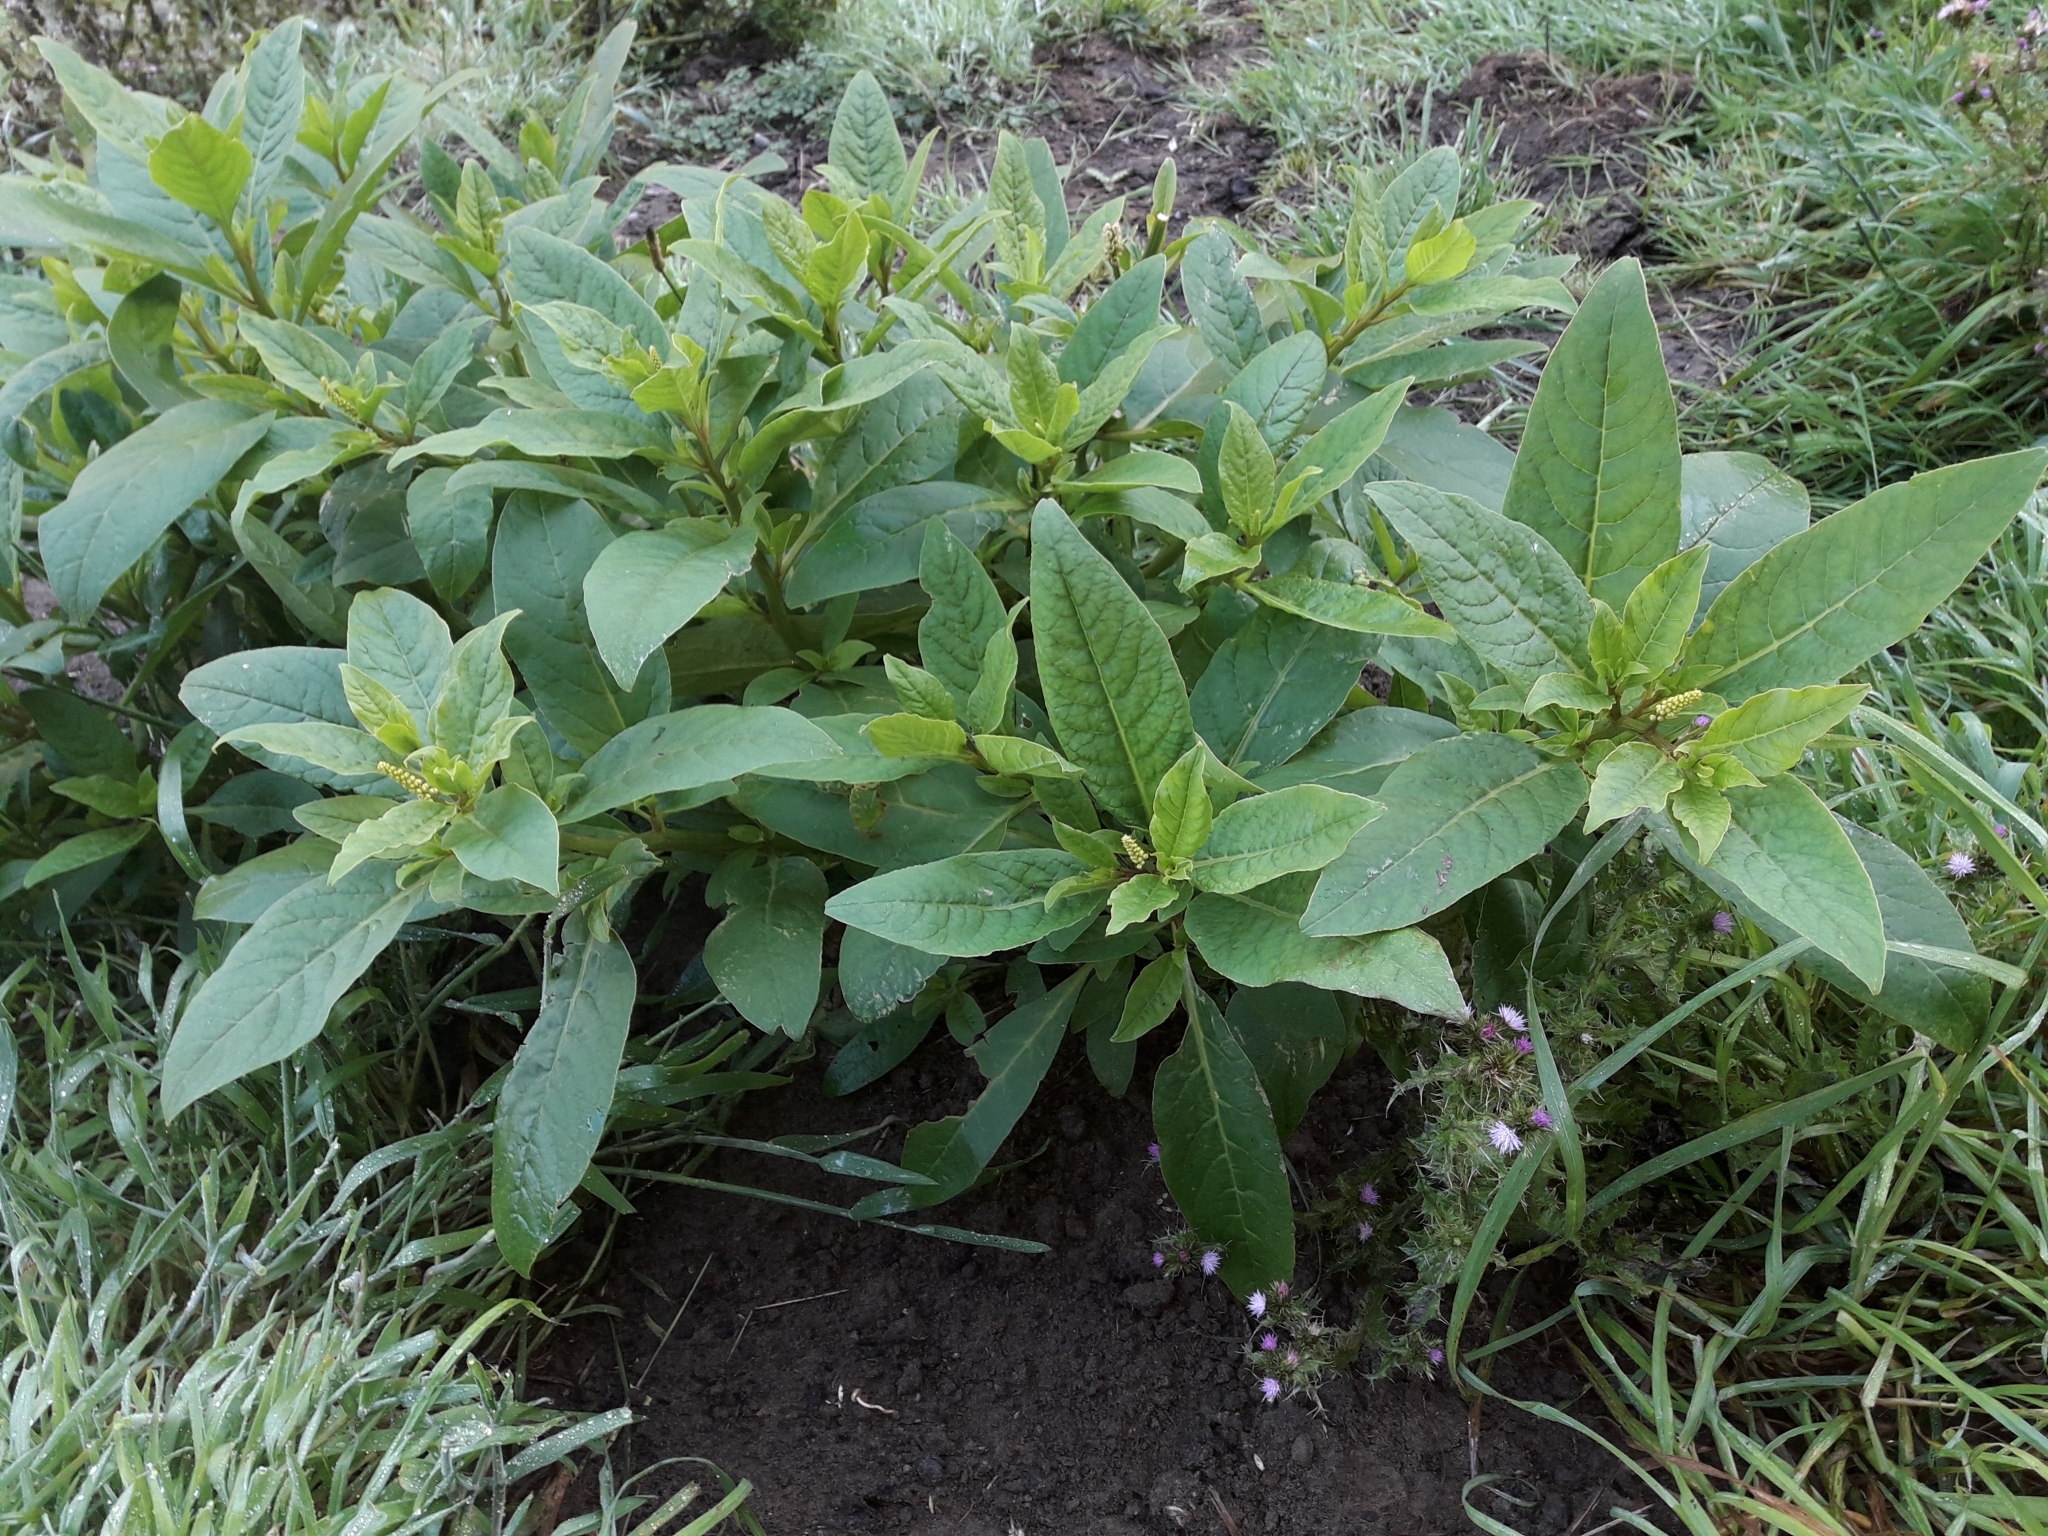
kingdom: Plantae
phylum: Tracheophyta
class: Magnoliopsida
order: Caryophyllales
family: Phytolaccaceae
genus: Phytolacca
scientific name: Phytolacca icosandra
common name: Button pokeweed
